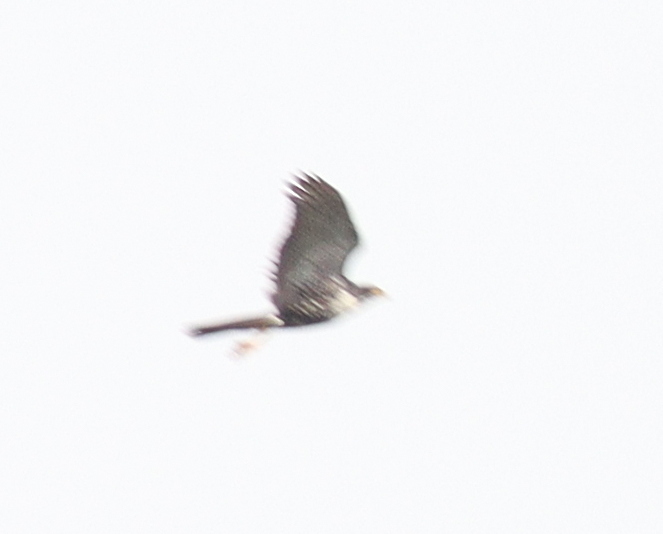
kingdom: Animalia
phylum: Chordata
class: Aves
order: Accipitriformes
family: Accipitridae
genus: Accipiter
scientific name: Accipiter melanoleucus
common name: Black sparrowhawk
